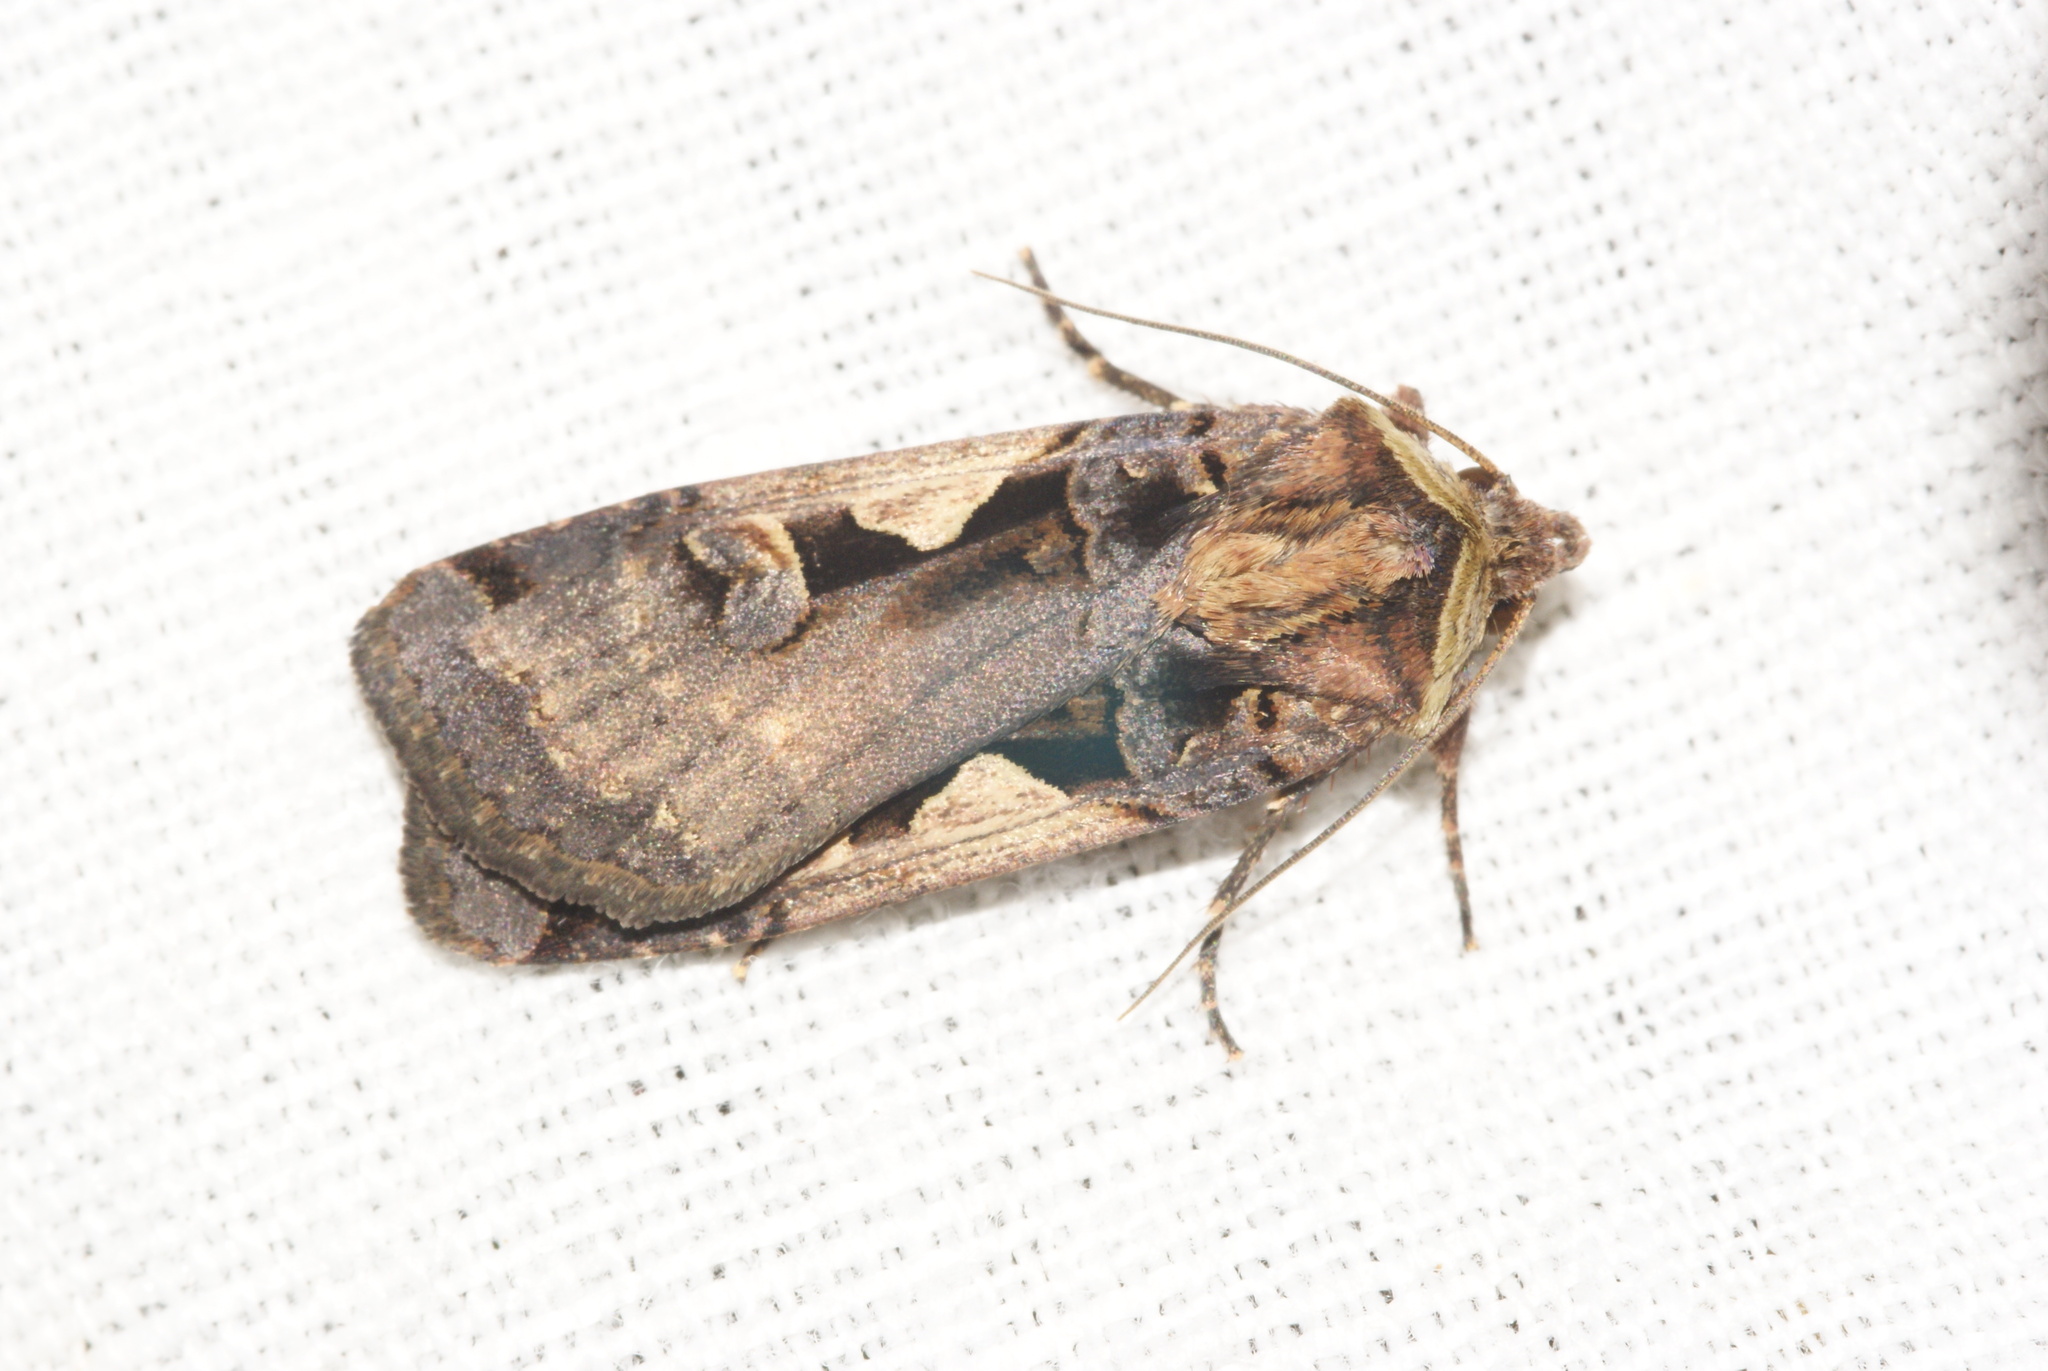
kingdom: Animalia
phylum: Arthropoda
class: Insecta
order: Lepidoptera
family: Noctuidae
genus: Xestia
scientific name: Xestia c-nigrum
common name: Setaceous hebrew character
